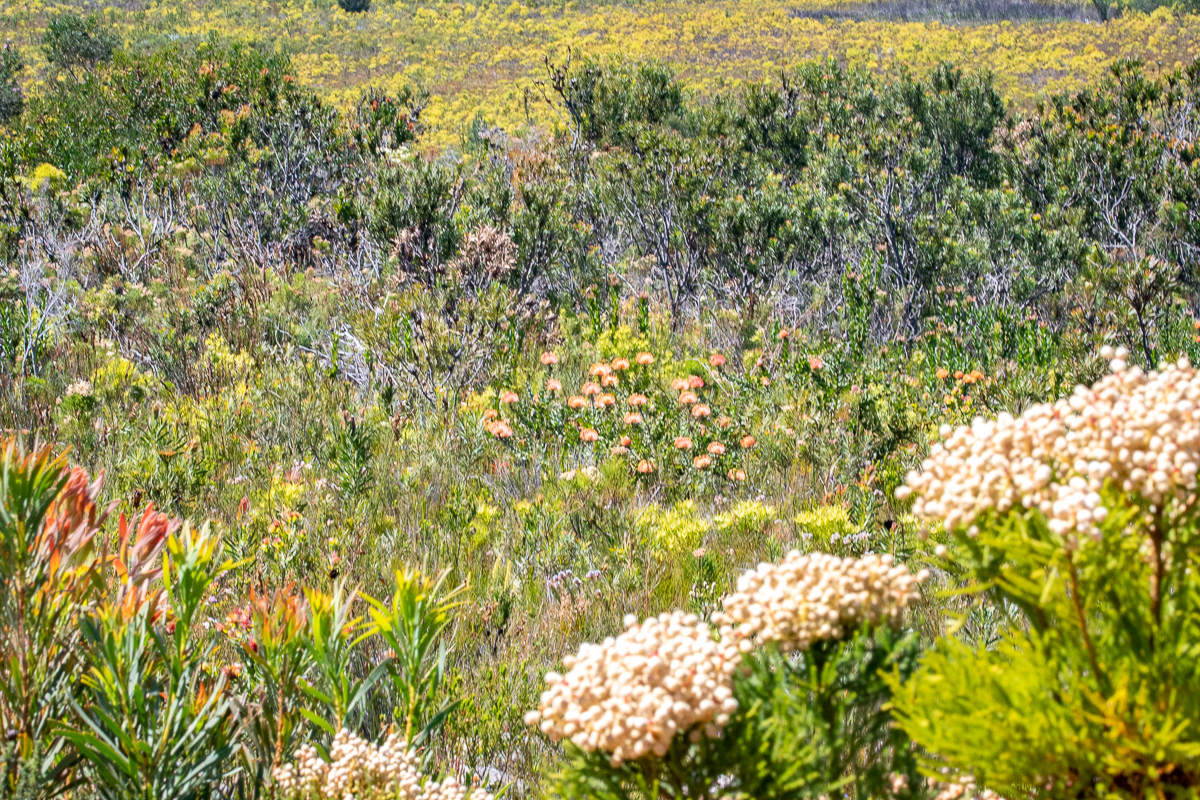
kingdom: Plantae
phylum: Tracheophyta
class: Magnoliopsida
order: Proteales
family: Proteaceae
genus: Leucospermum
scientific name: Leucospermum cordifolium
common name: Red pincushion-protea
